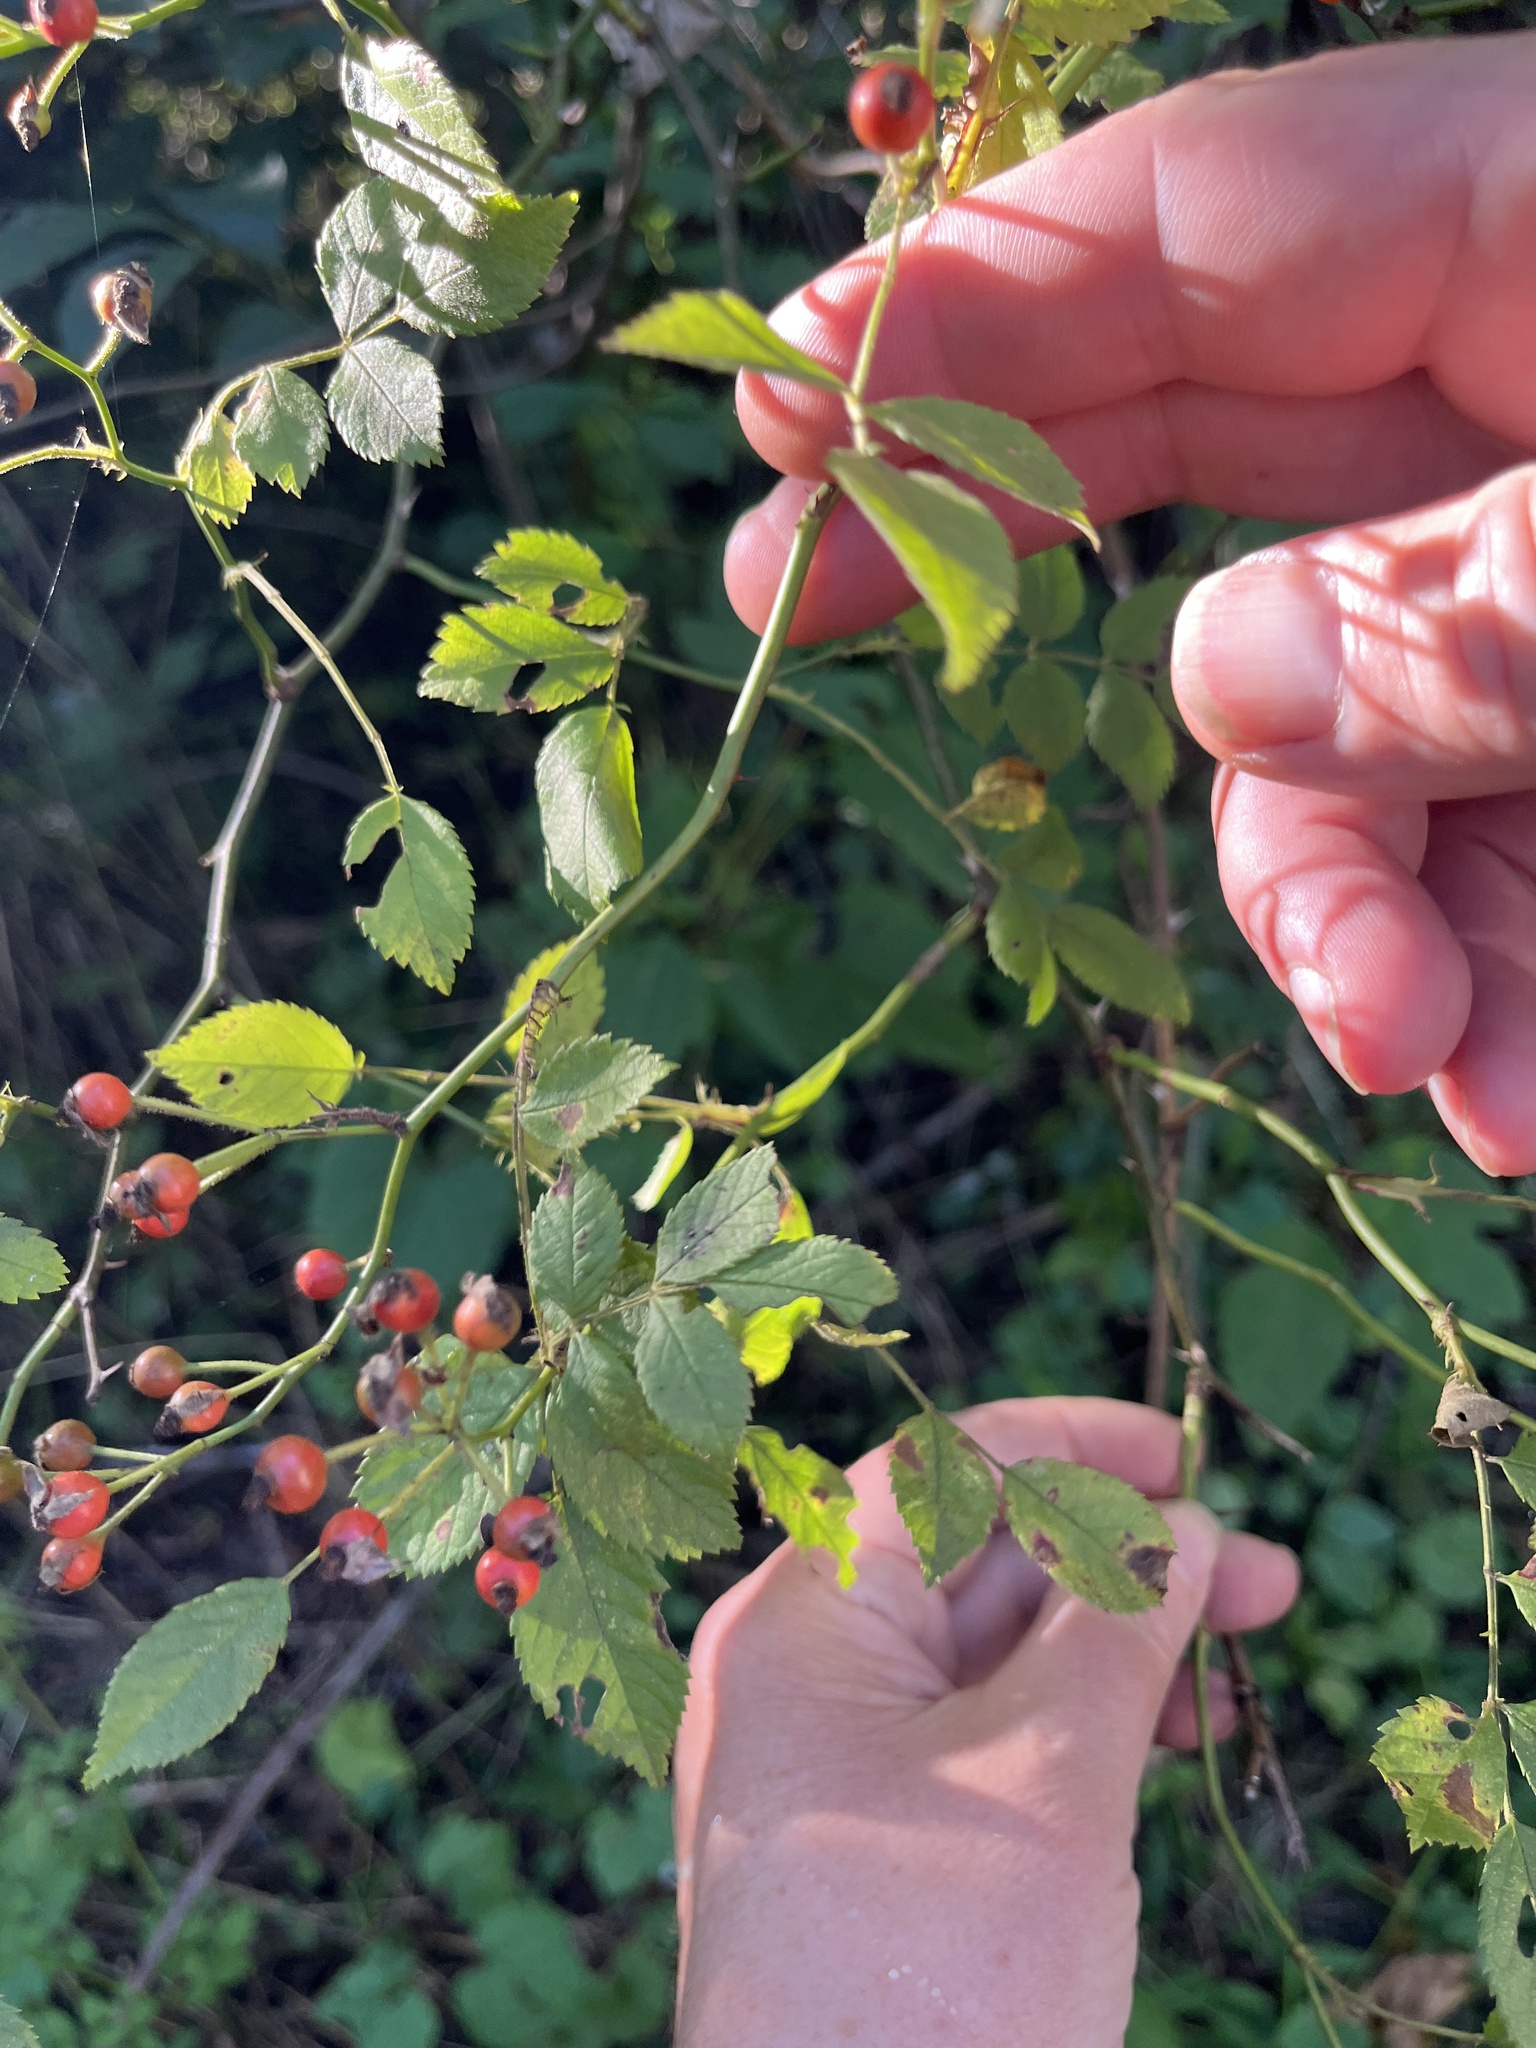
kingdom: Plantae
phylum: Tracheophyta
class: Magnoliopsida
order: Rosales
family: Rosaceae
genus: Rosa
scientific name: Rosa multiflora
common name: Multiflora rose
